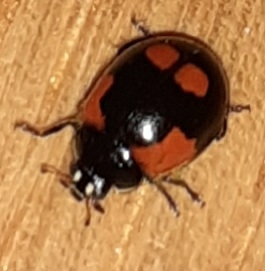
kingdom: Animalia
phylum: Arthropoda
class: Insecta
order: Coleoptera
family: Coccinellidae
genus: Adalia
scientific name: Adalia bipunctata
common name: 2-spot ladybird
